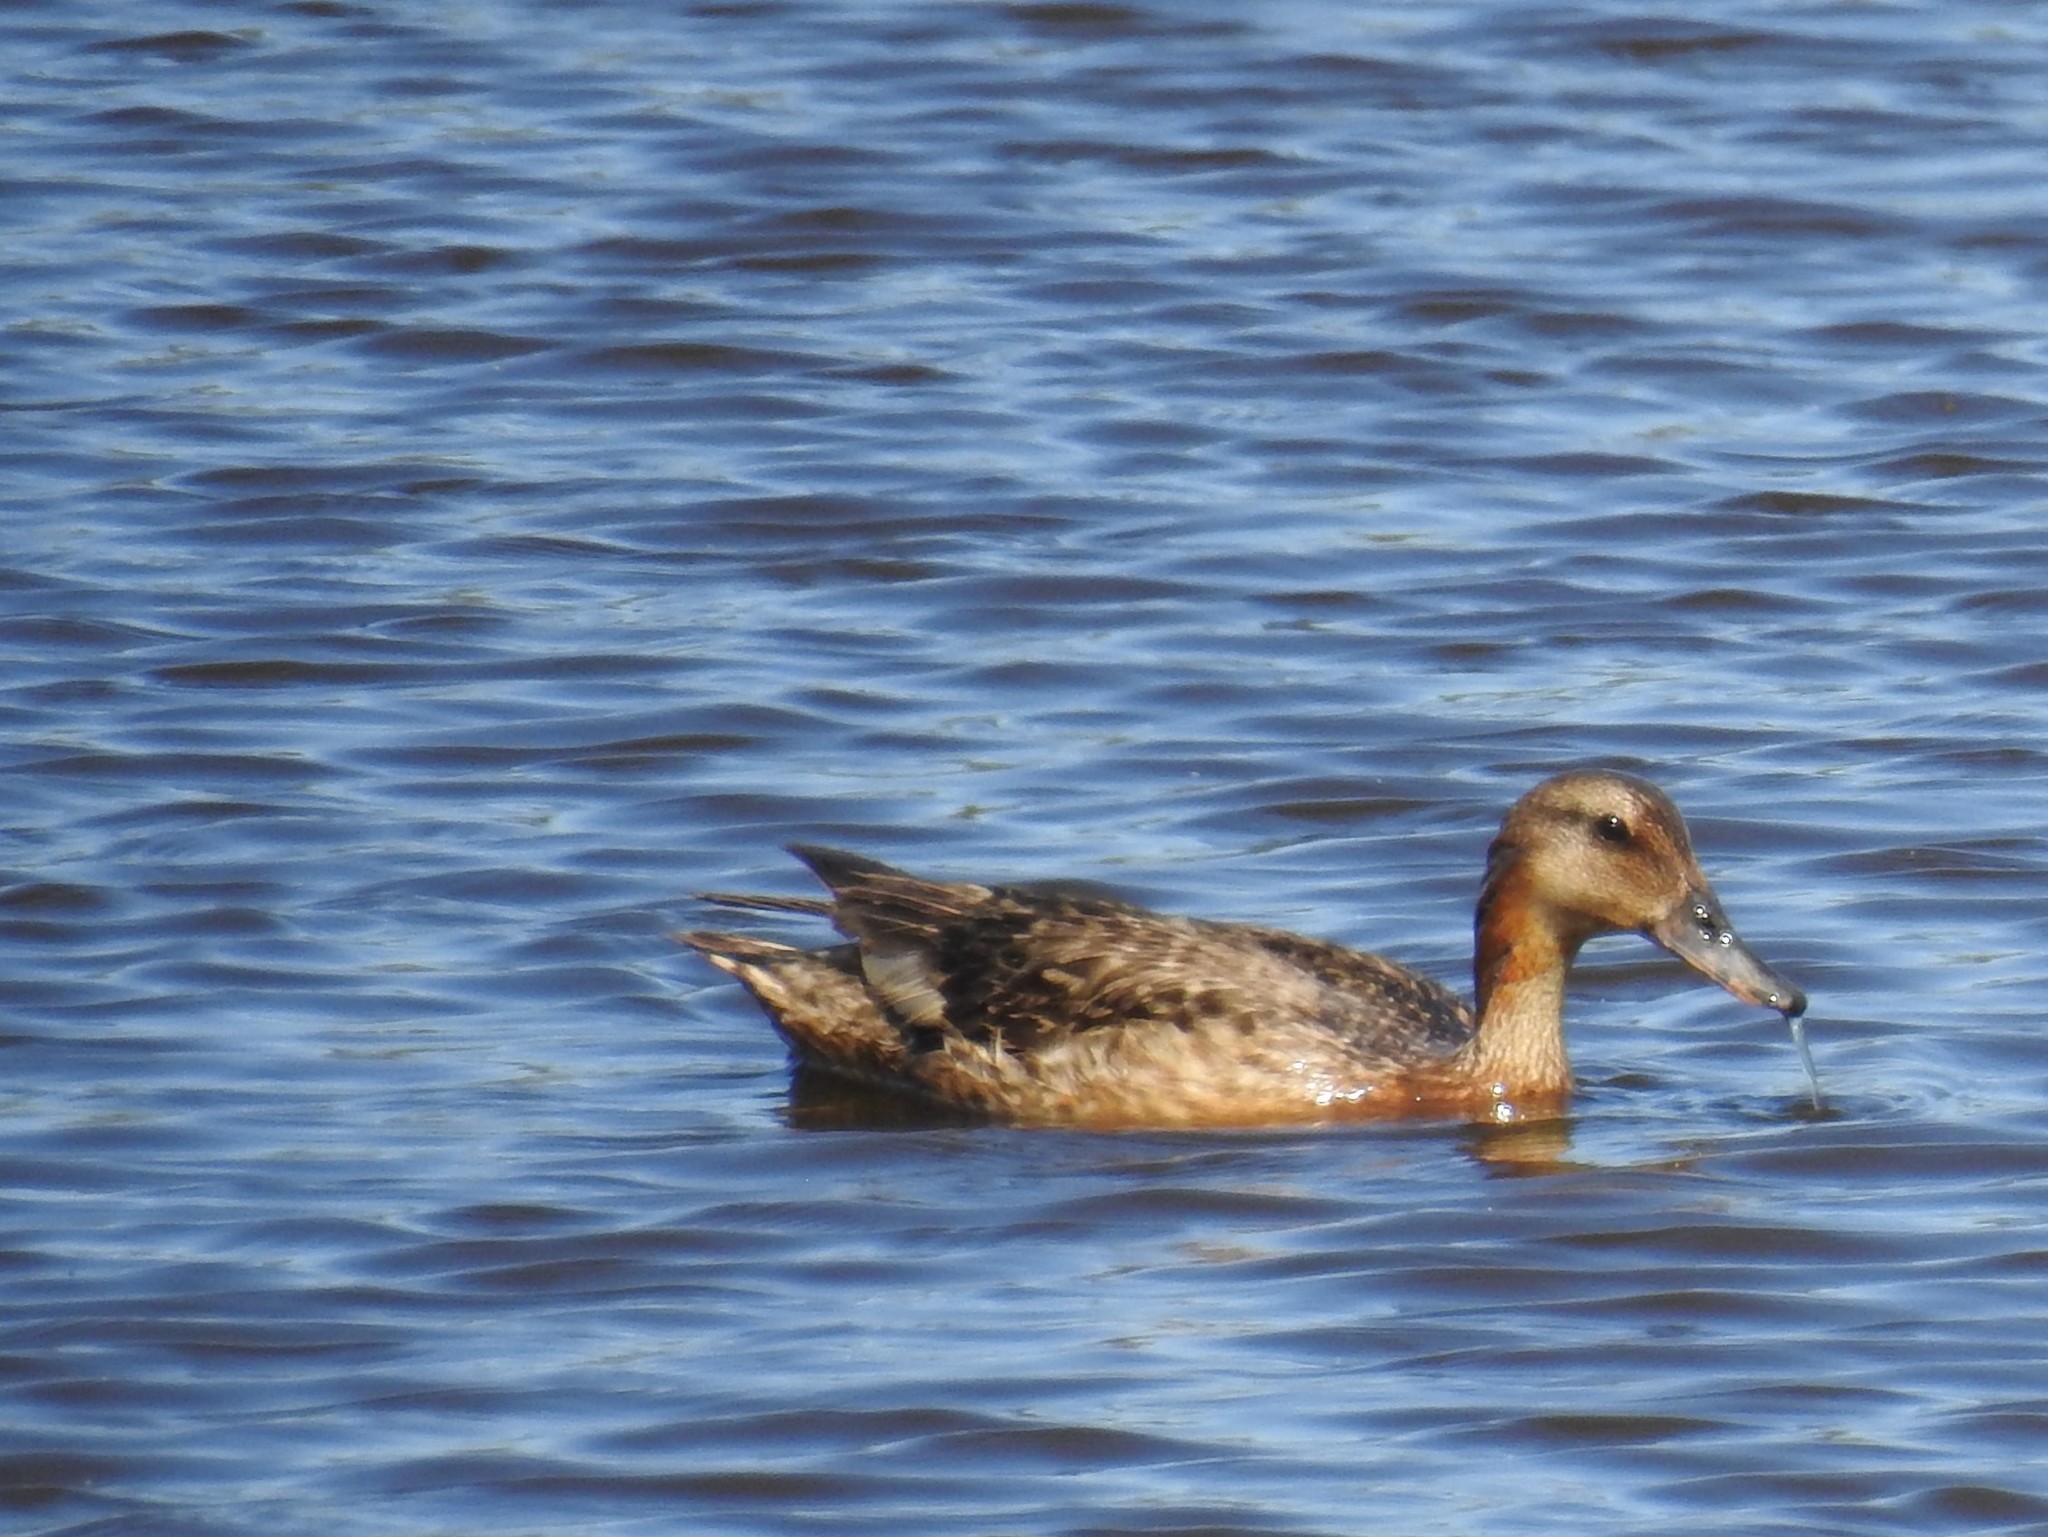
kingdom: Animalia
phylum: Chordata
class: Aves
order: Anseriformes
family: Anatidae
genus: Anas
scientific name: Anas platyrhynchos
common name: Mallard
